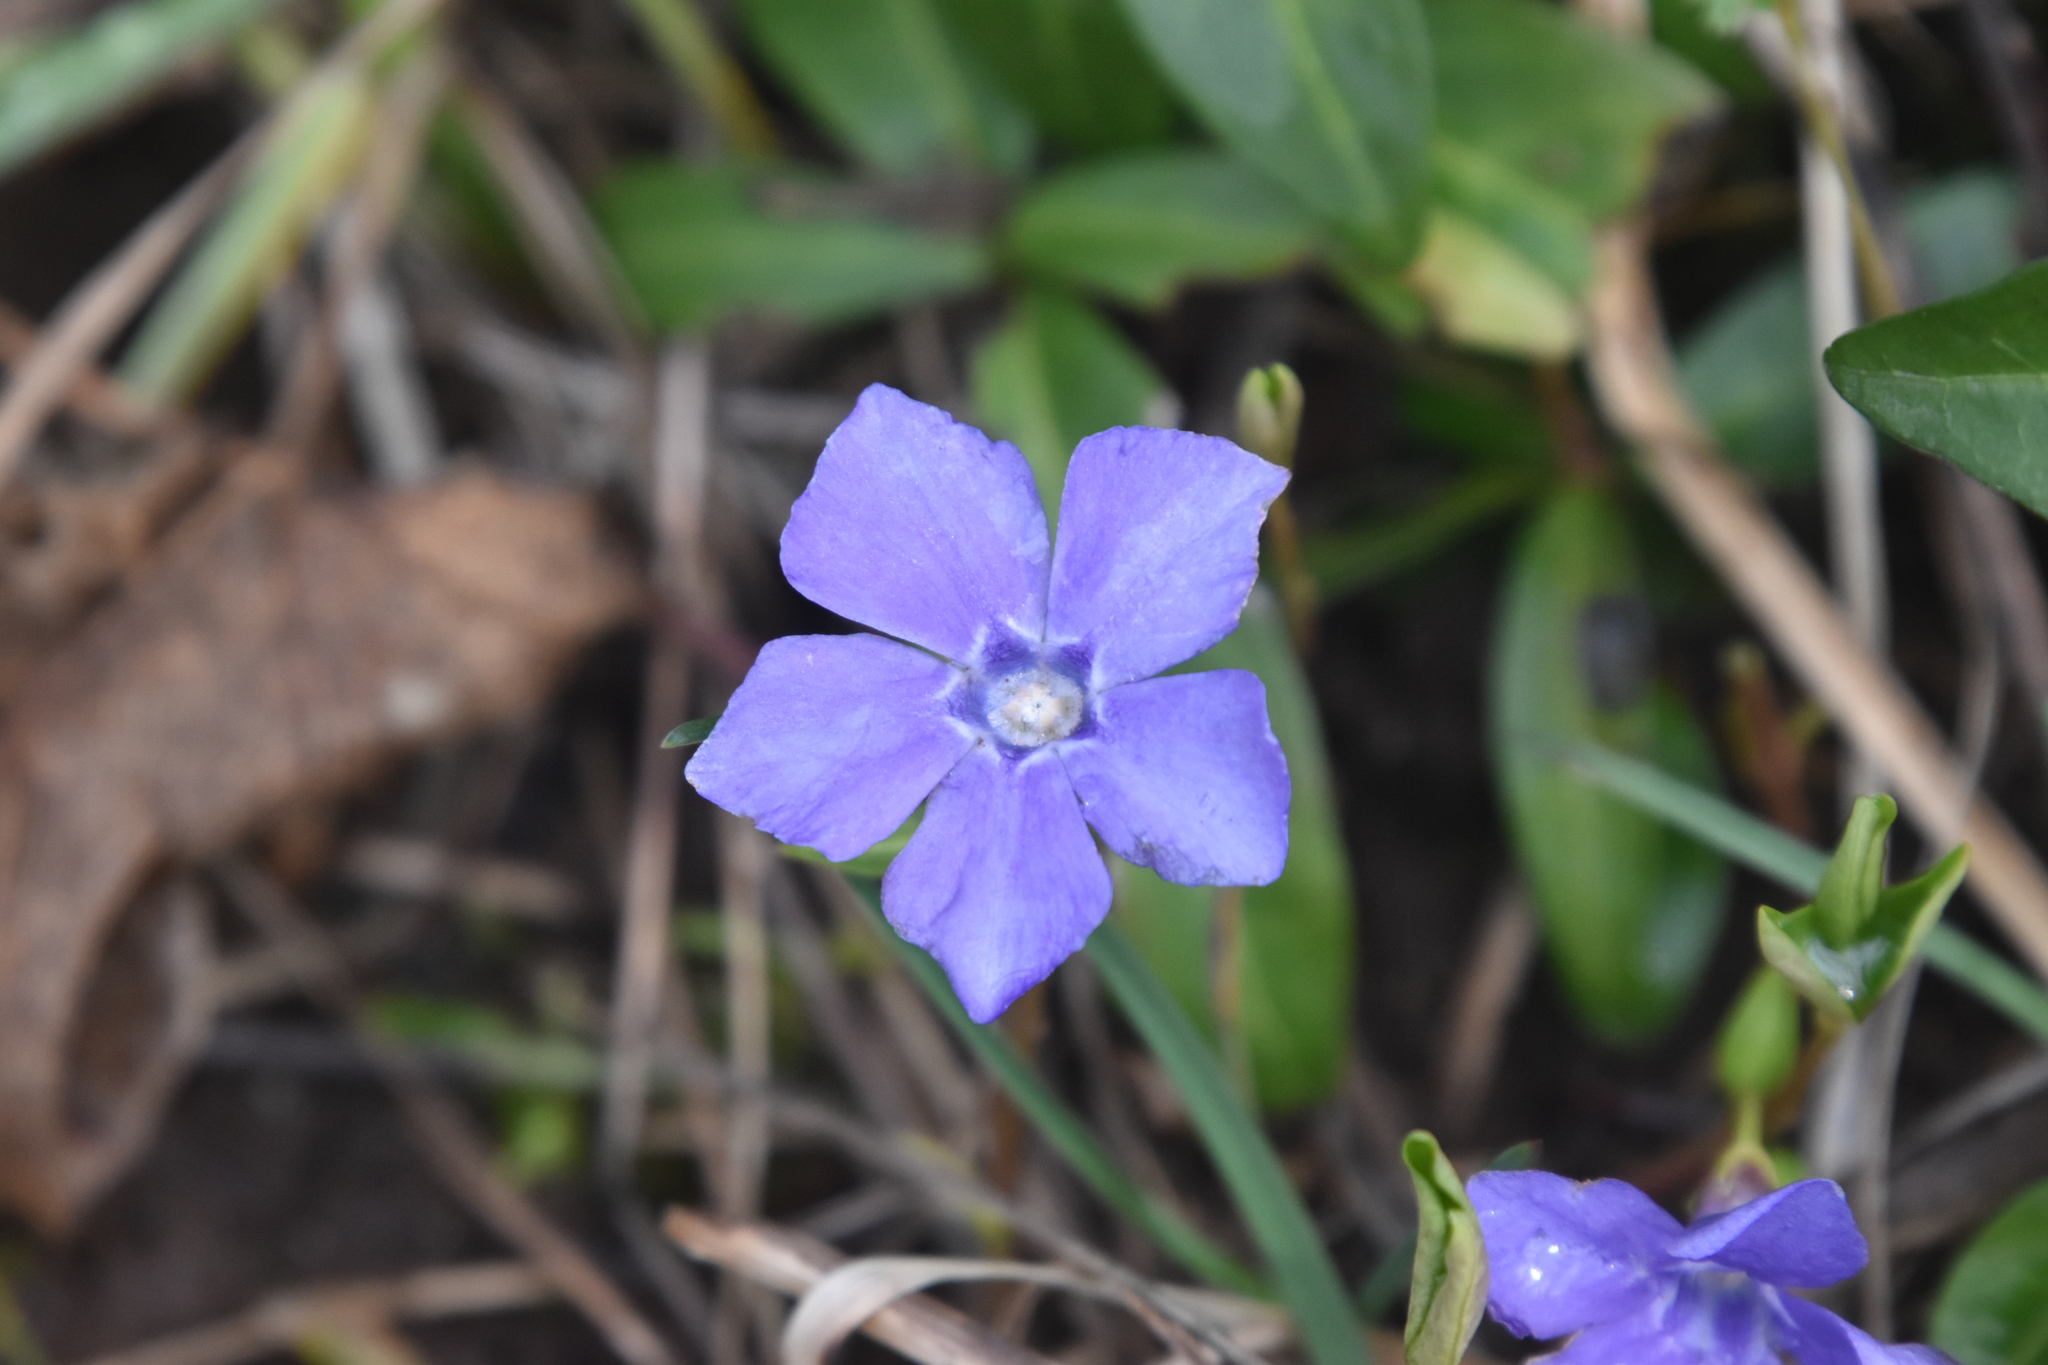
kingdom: Plantae
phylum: Tracheophyta
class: Magnoliopsida
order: Gentianales
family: Apocynaceae
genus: Vinca
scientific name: Vinca minor
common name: Lesser periwinkle
